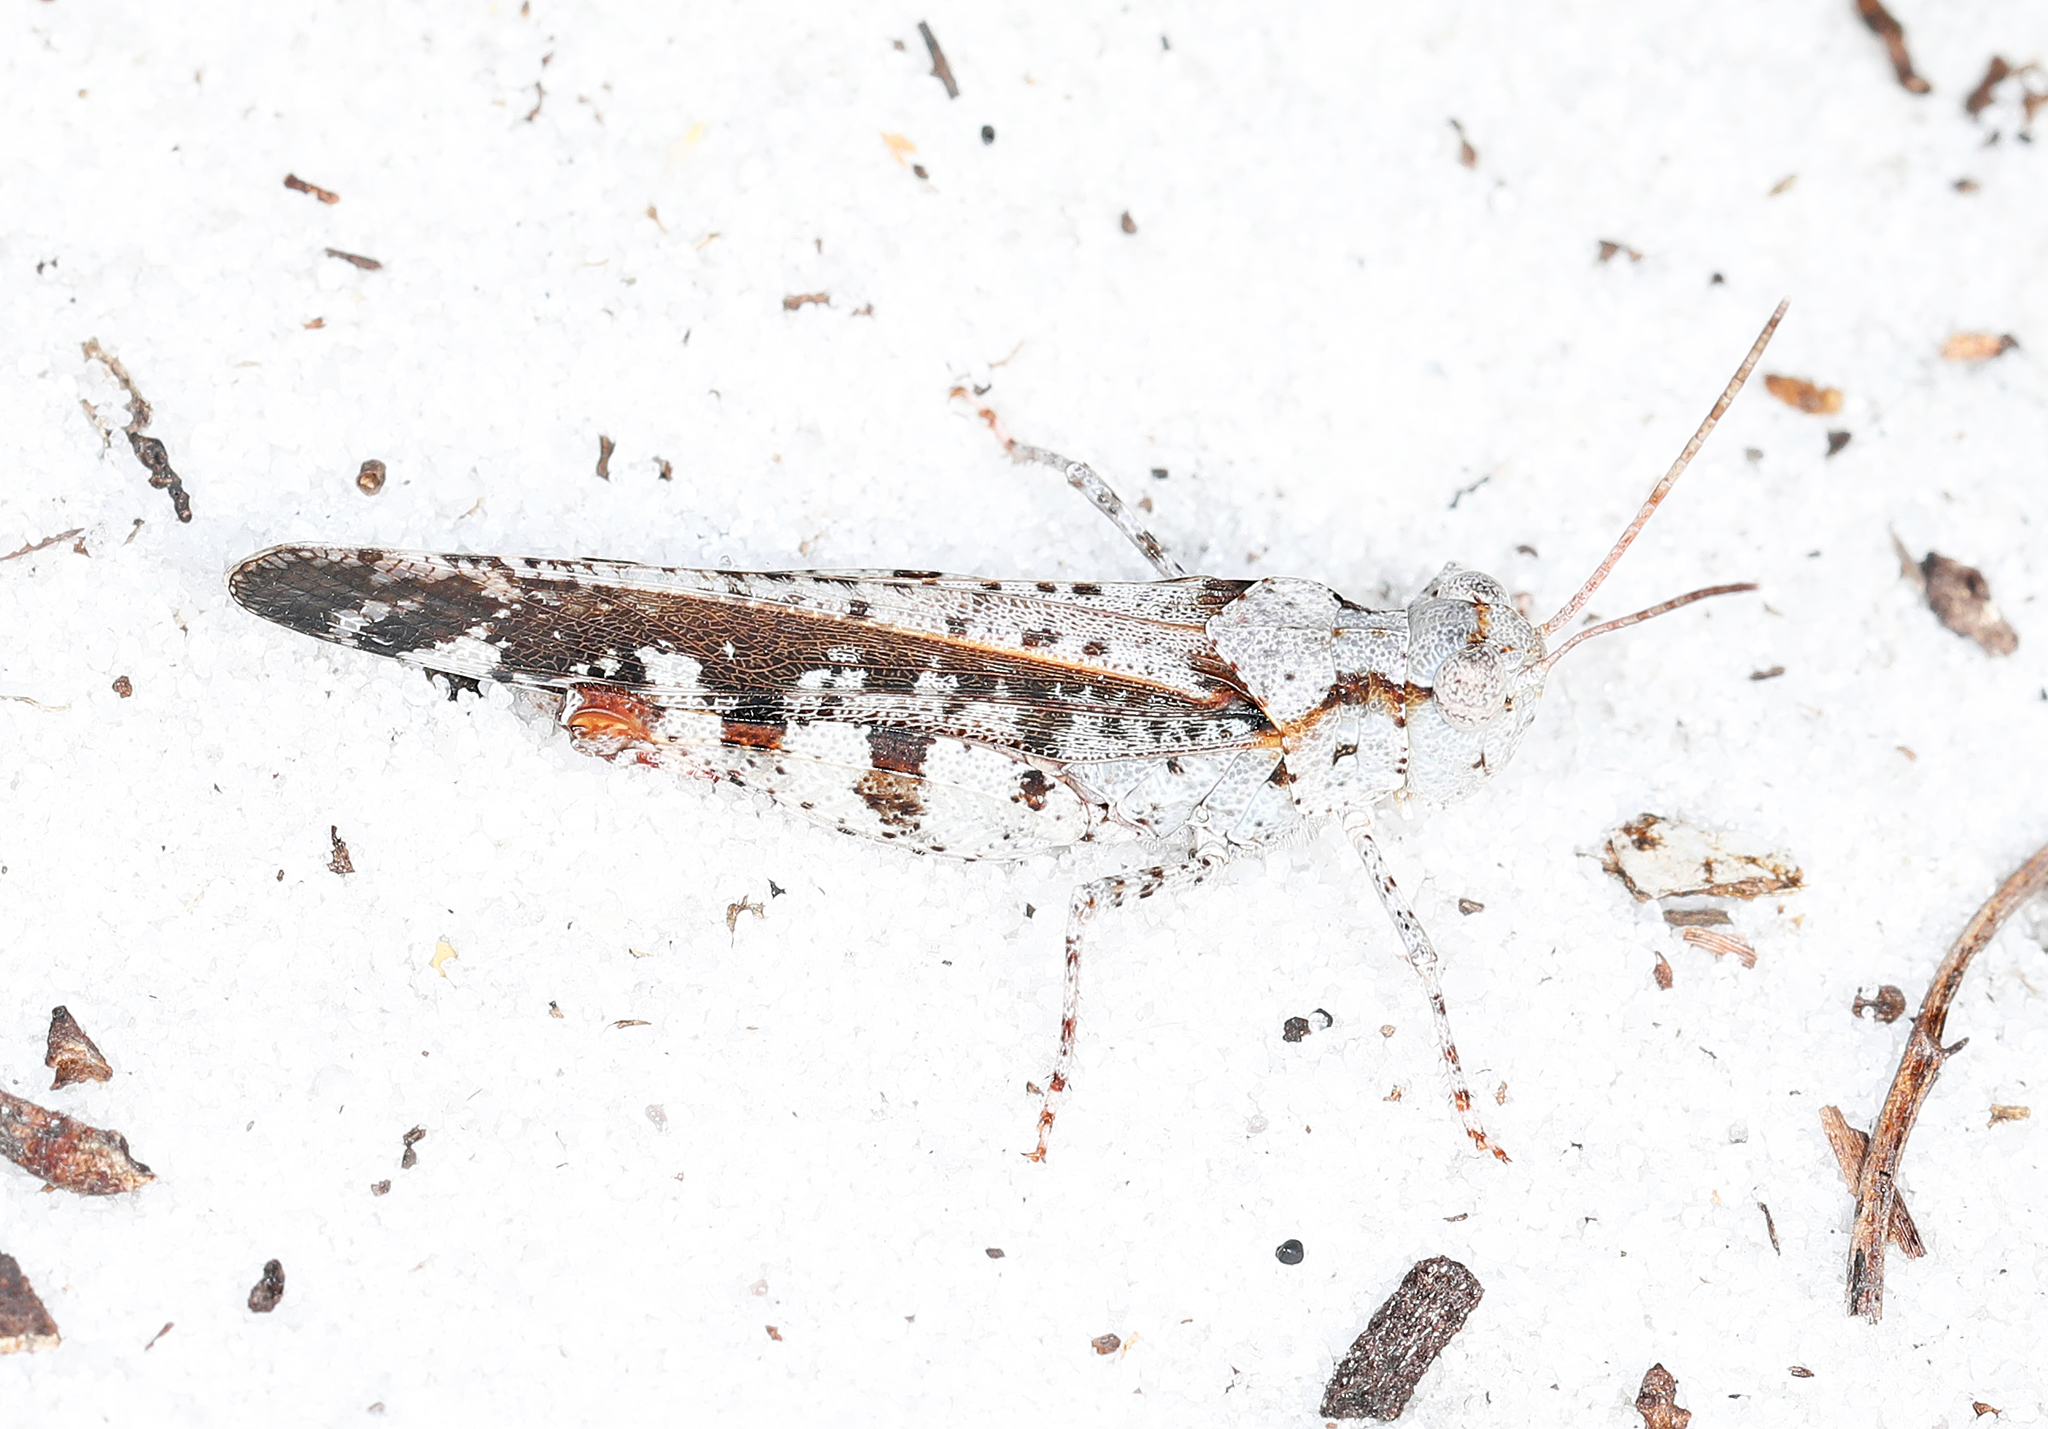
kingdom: Animalia
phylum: Arthropoda
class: Insecta
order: Orthoptera
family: Acrididae
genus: Spharagemon
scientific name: Spharagemon marmoratum
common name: Marbled grasshopper
